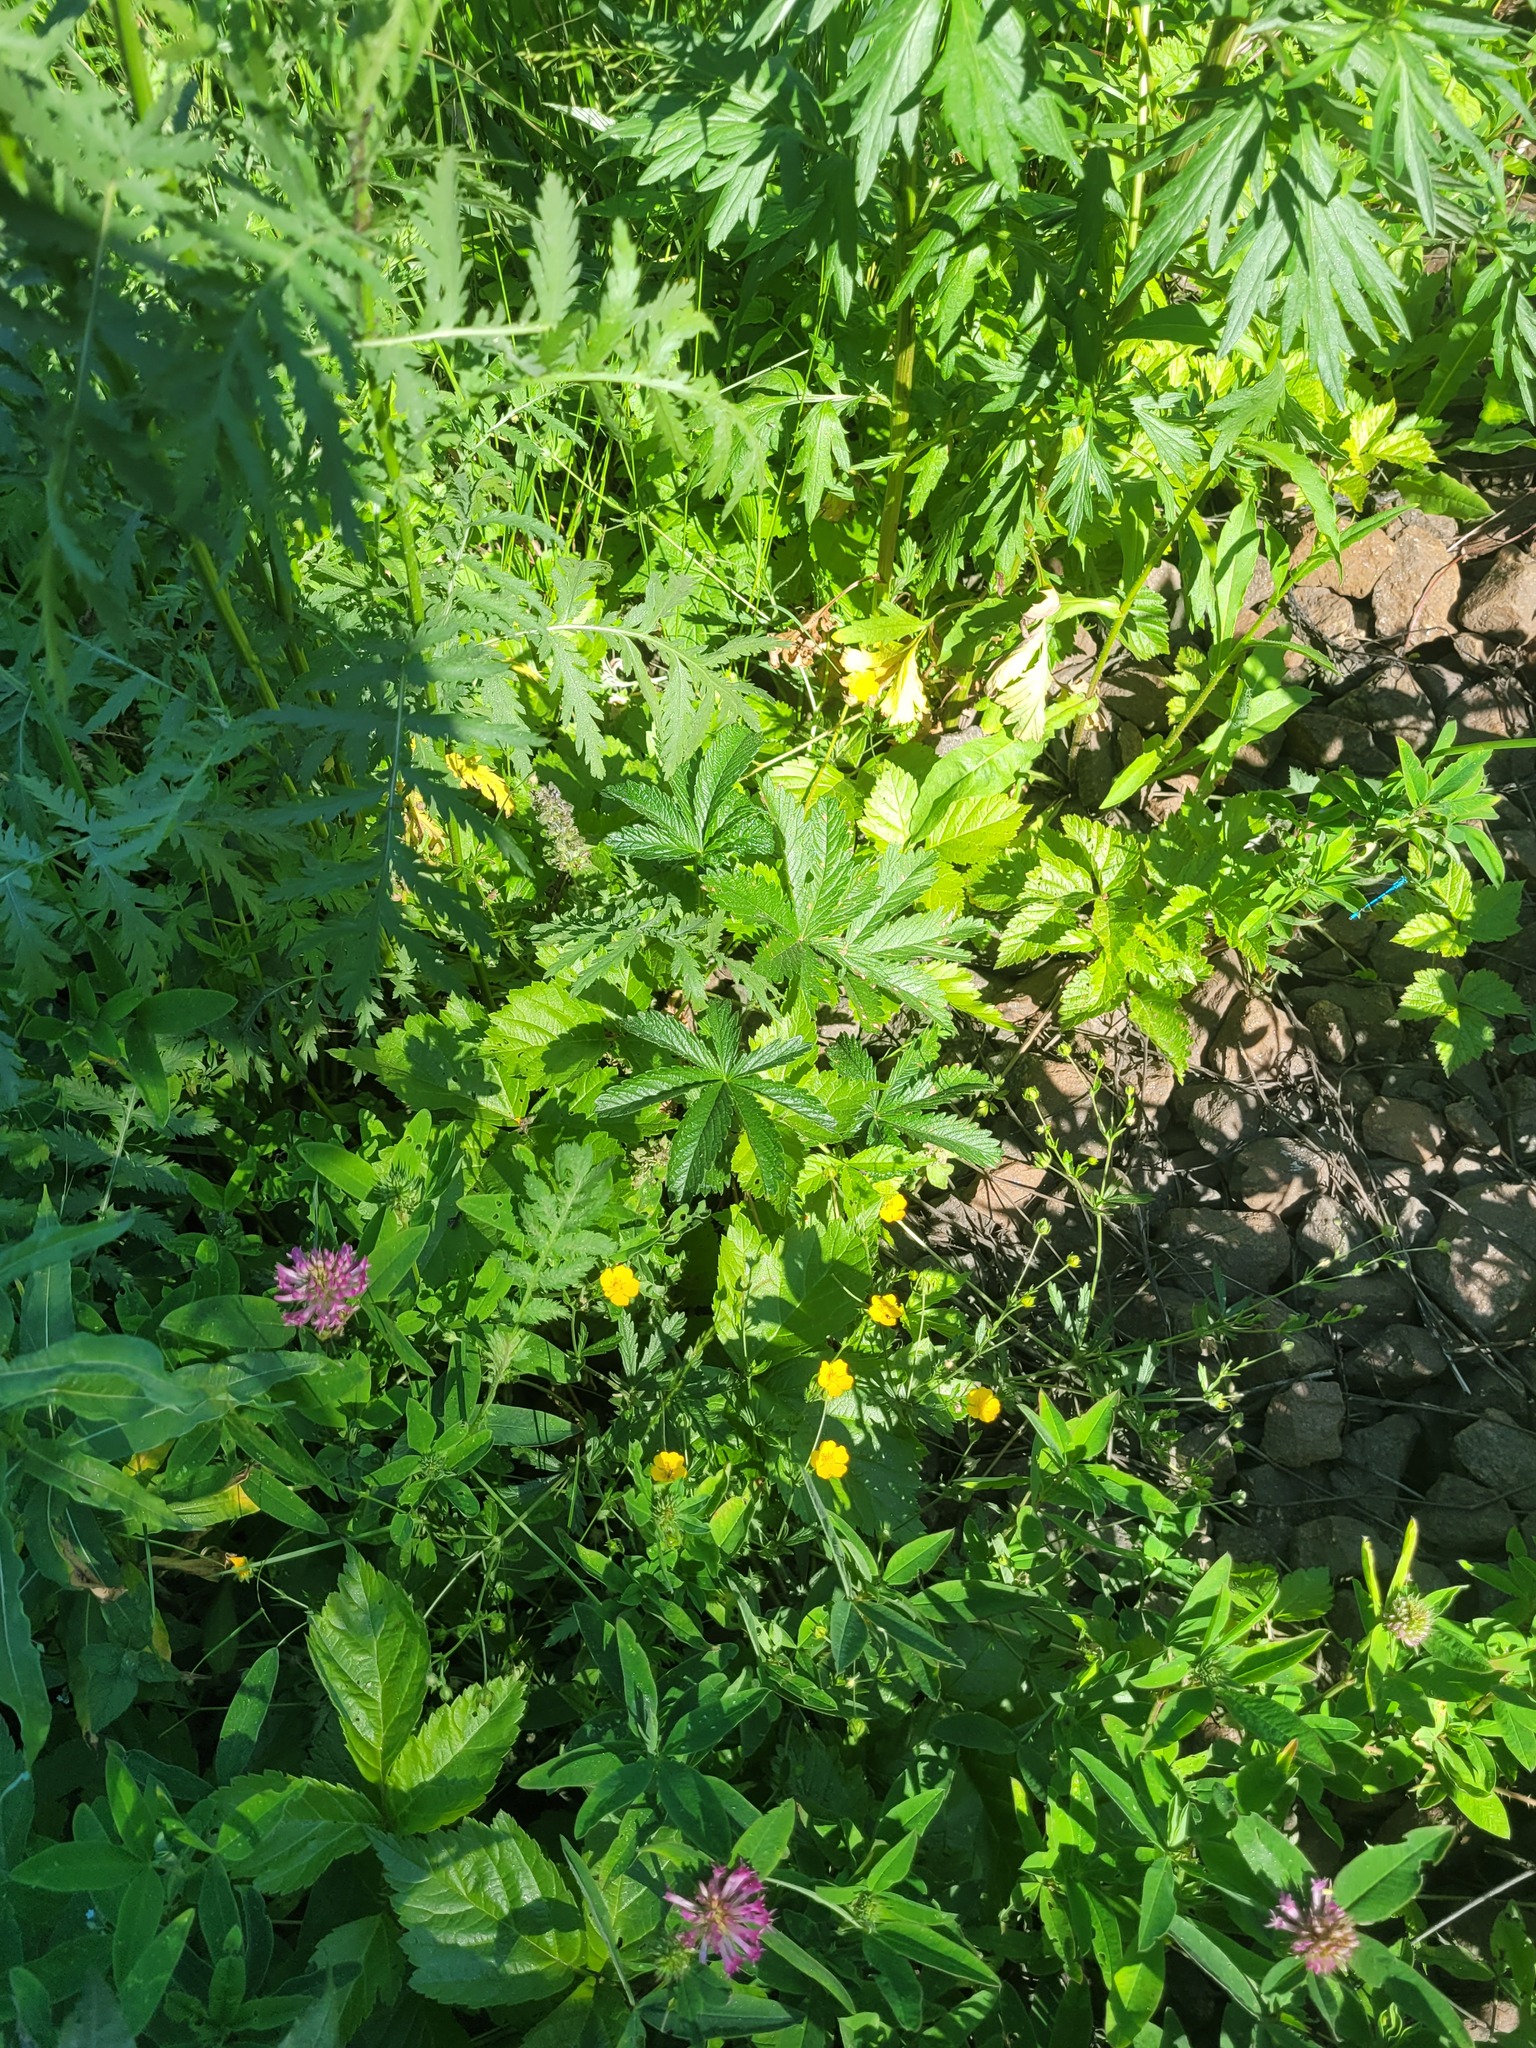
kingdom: Plantae
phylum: Tracheophyta
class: Magnoliopsida
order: Rosales
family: Rosaceae
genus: Potentilla
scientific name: Potentilla thuringiaca
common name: European cinquefoil
